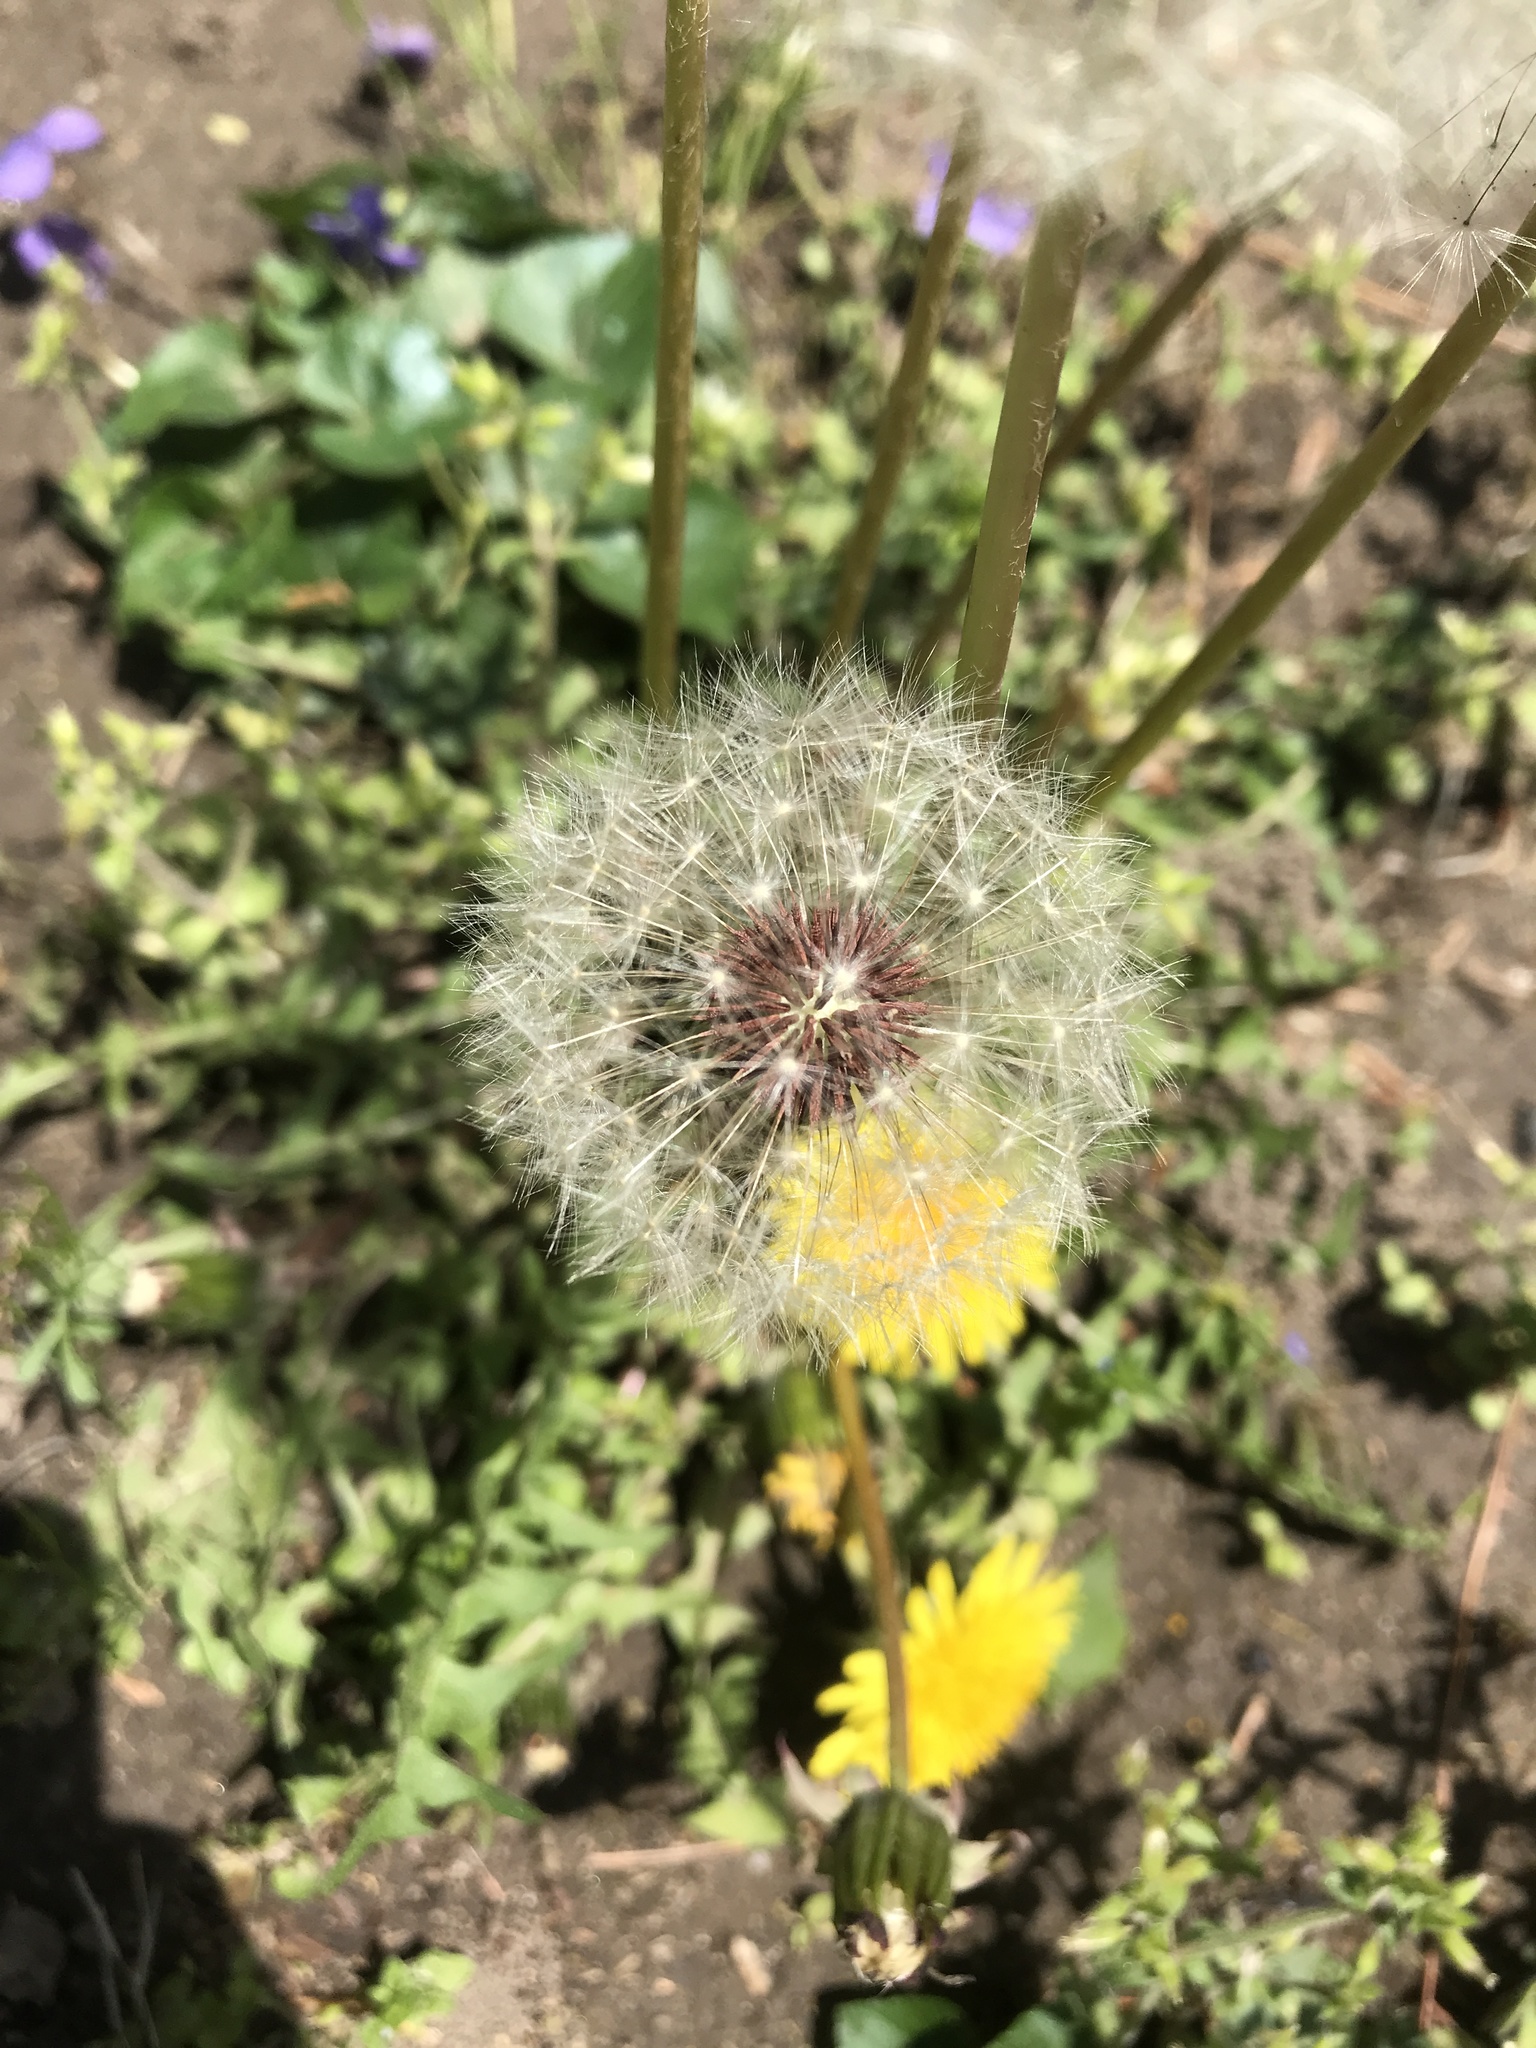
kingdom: Plantae
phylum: Tracheophyta
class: Magnoliopsida
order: Asterales
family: Asteraceae
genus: Taraxacum
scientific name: Taraxacum erythrospermum
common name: Rock dandelion
